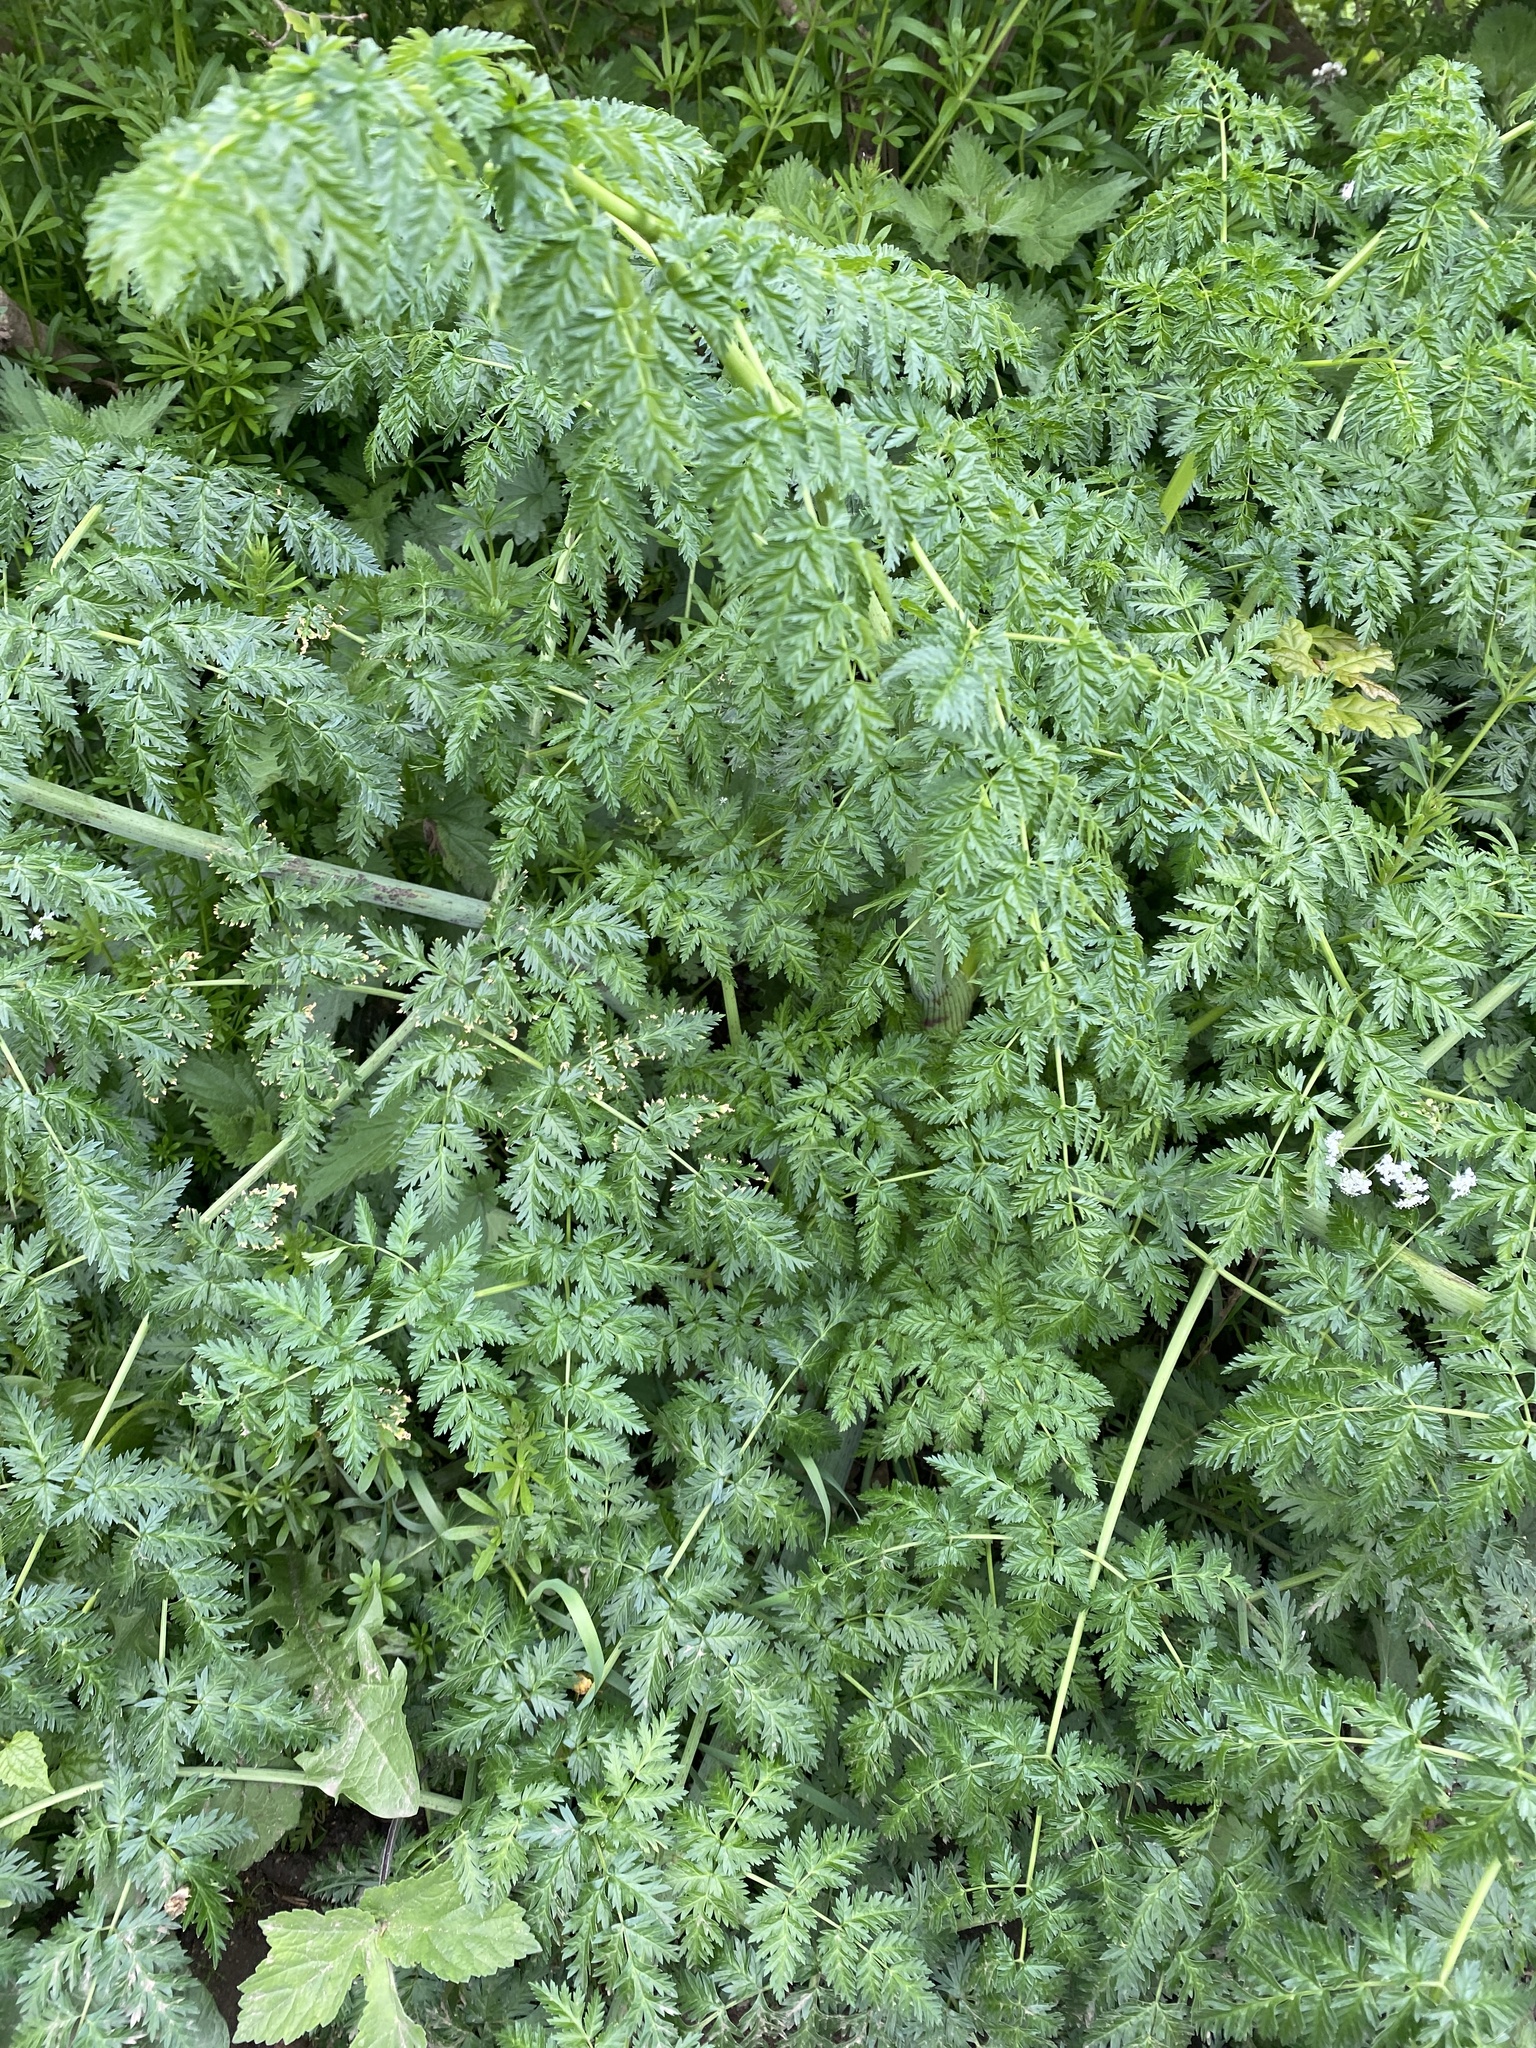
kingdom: Plantae
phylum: Tracheophyta
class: Magnoliopsida
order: Apiales
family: Apiaceae
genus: Conium
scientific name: Conium maculatum
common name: Hemlock
